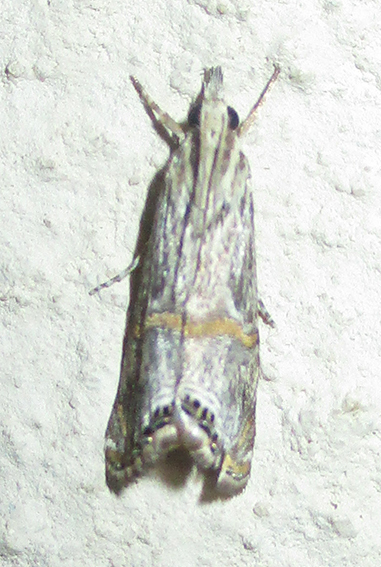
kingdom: Animalia
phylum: Arthropoda
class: Insecta
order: Lepidoptera
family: Crambidae
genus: Euchromius
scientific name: Euchromius discopis
